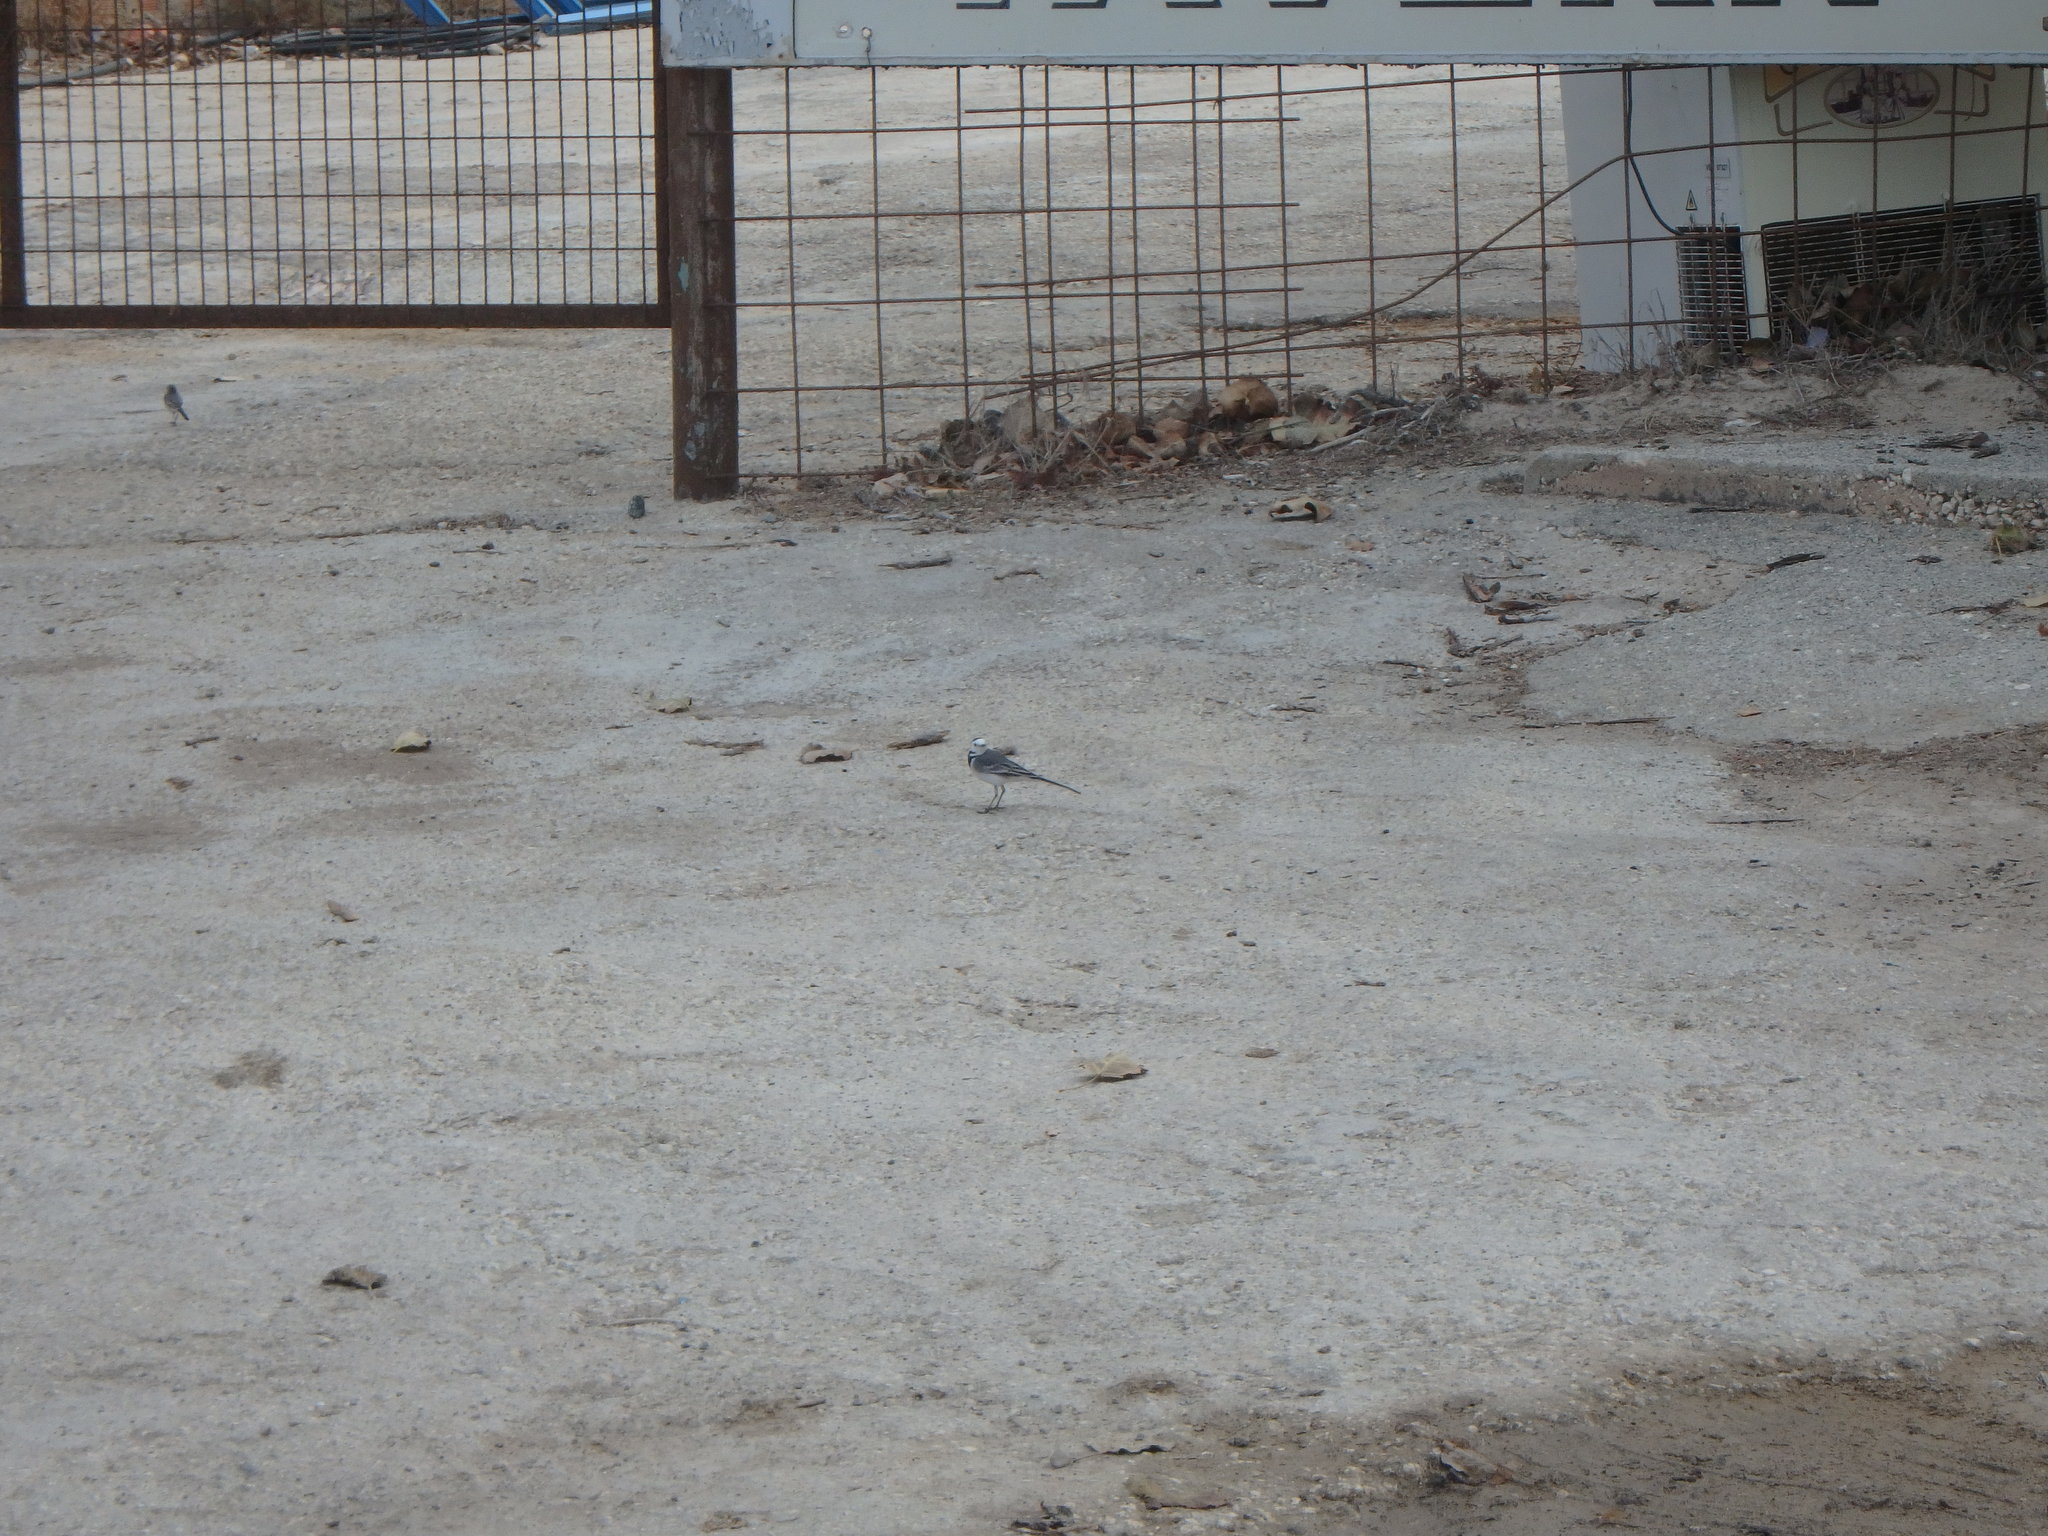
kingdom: Animalia
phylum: Chordata
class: Aves
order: Passeriformes
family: Motacillidae
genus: Motacilla
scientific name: Motacilla alba
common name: White wagtail
